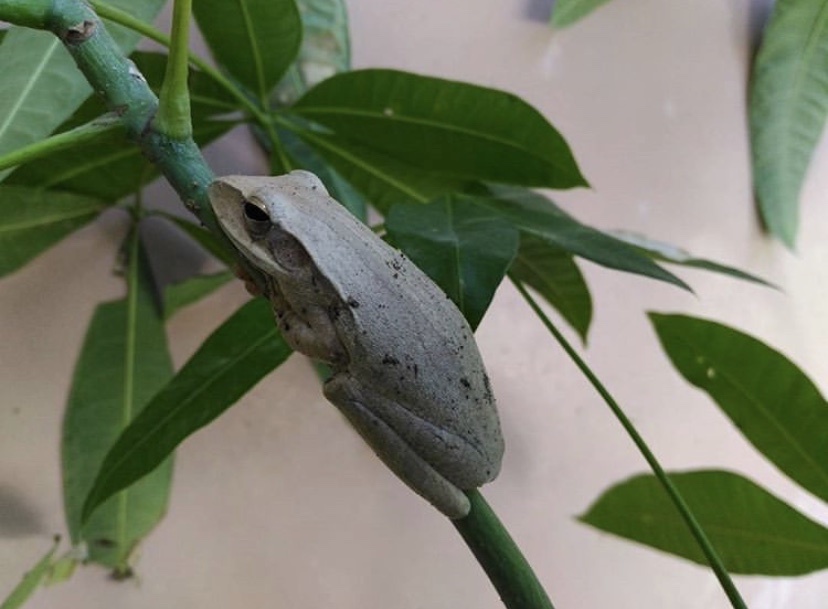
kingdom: Animalia
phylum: Chordata
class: Amphibia
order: Anura
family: Rhacophoridae
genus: Polypedates
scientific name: Polypedates leucomystax
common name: Common tree frog/four-lined tree frog
